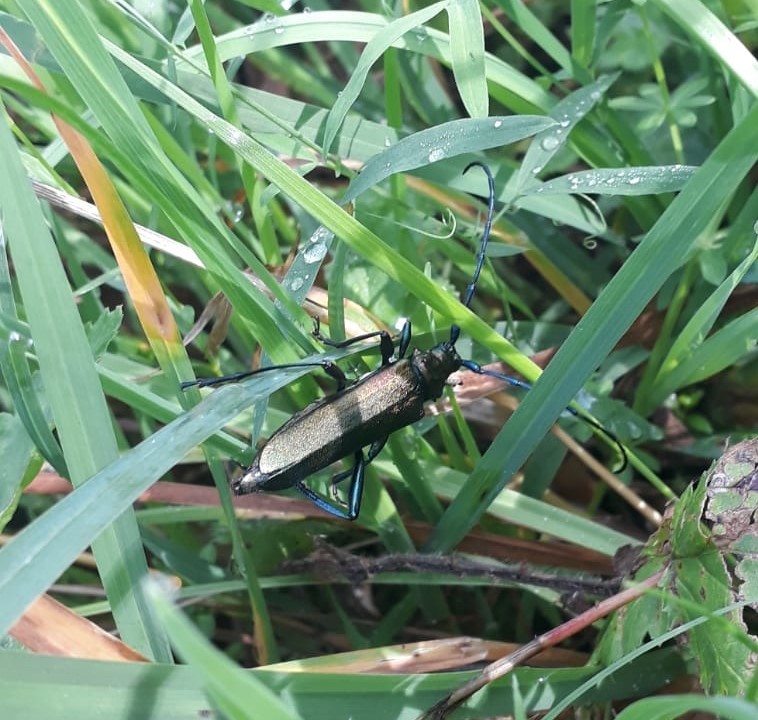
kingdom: Animalia
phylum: Arthropoda
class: Insecta
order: Coleoptera
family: Cerambycidae
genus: Aromia
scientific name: Aromia moschata
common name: Musk beetle
